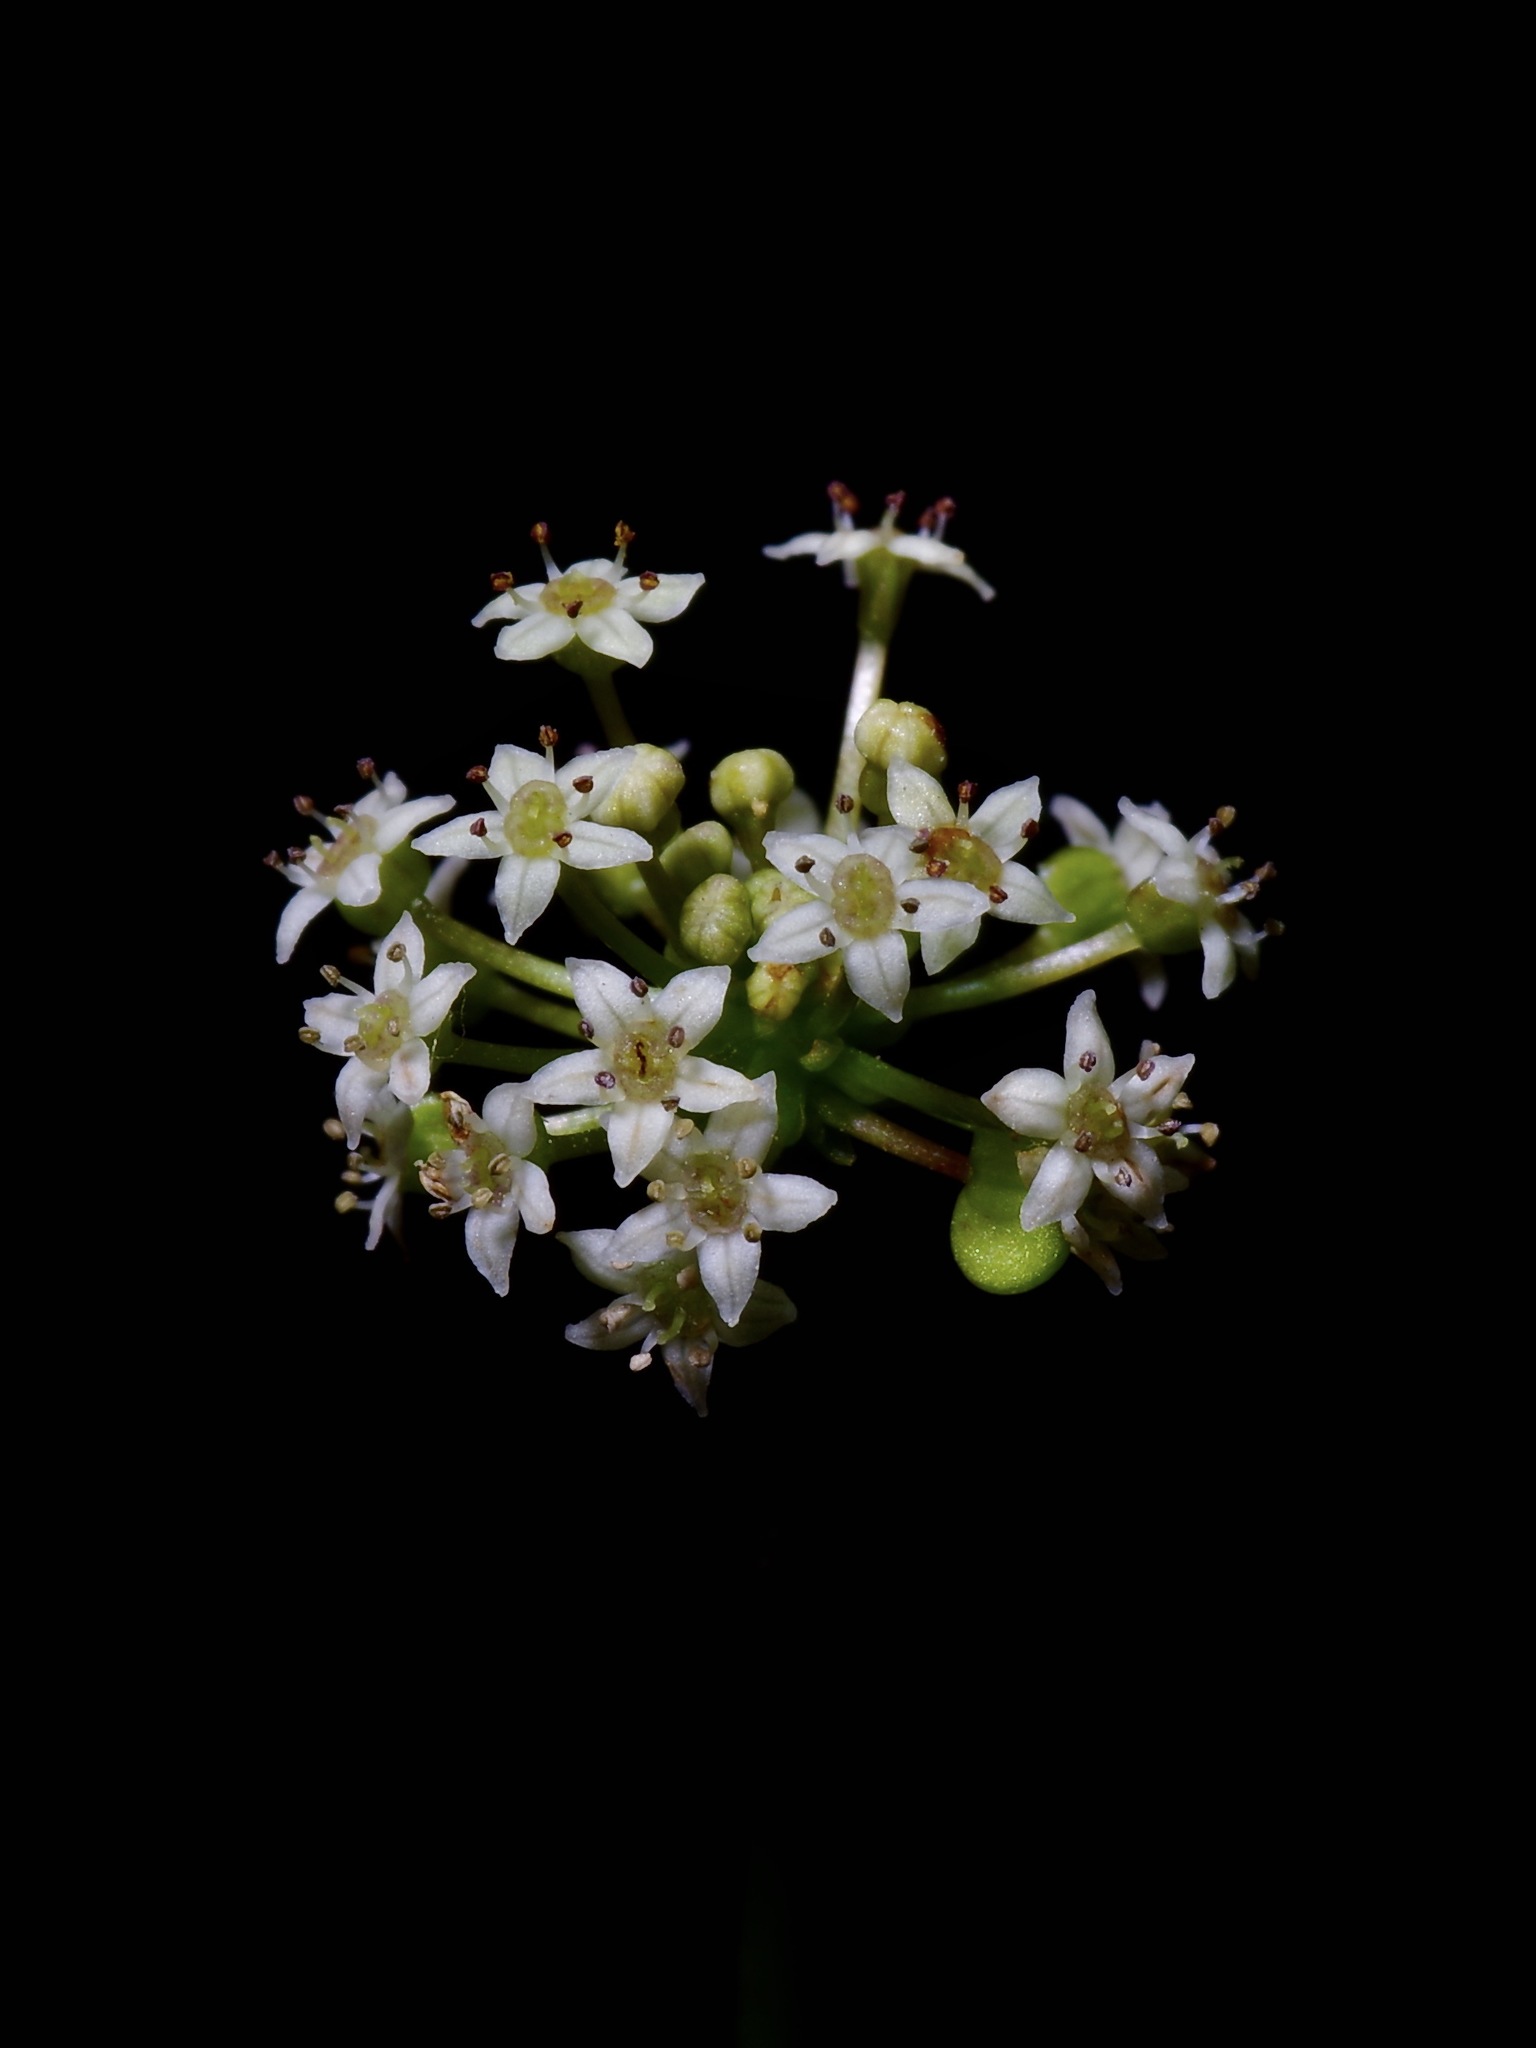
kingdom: Plantae
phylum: Tracheophyta
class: Magnoliopsida
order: Apiales
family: Araliaceae
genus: Hydrocotyle
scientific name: Hydrocotyle umbellata
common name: Water pennywort
